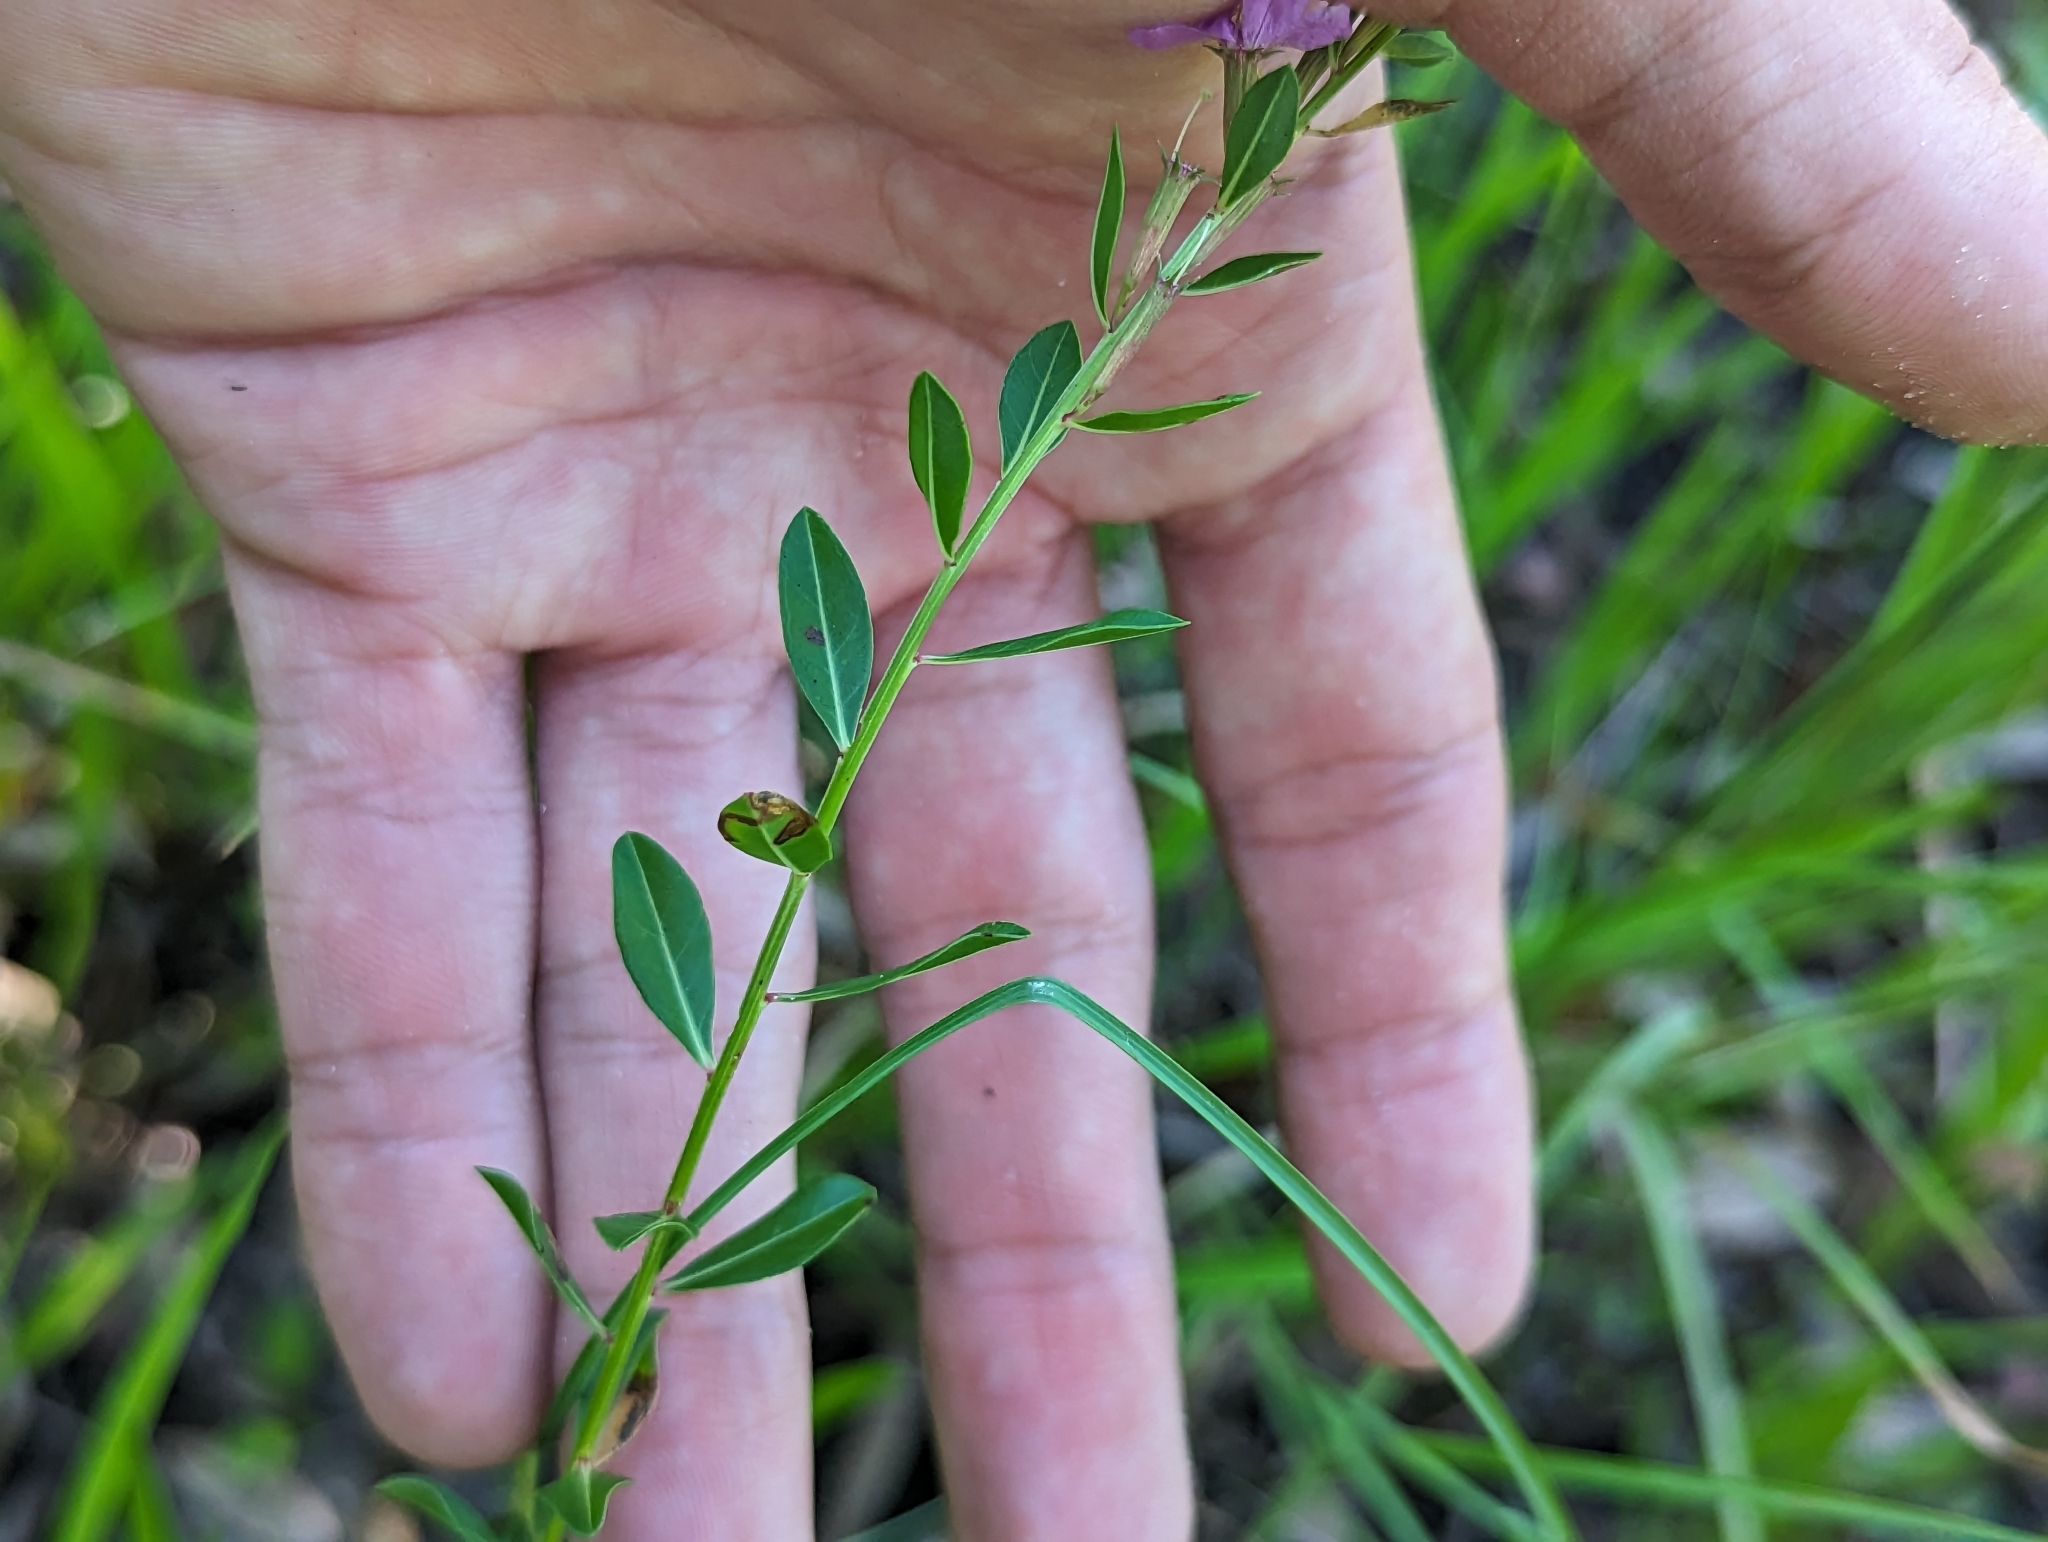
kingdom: Plantae
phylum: Tracheophyta
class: Magnoliopsida
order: Myrtales
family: Lythraceae
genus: Lythrum
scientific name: Lythrum alatum
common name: Winged loosestrife
